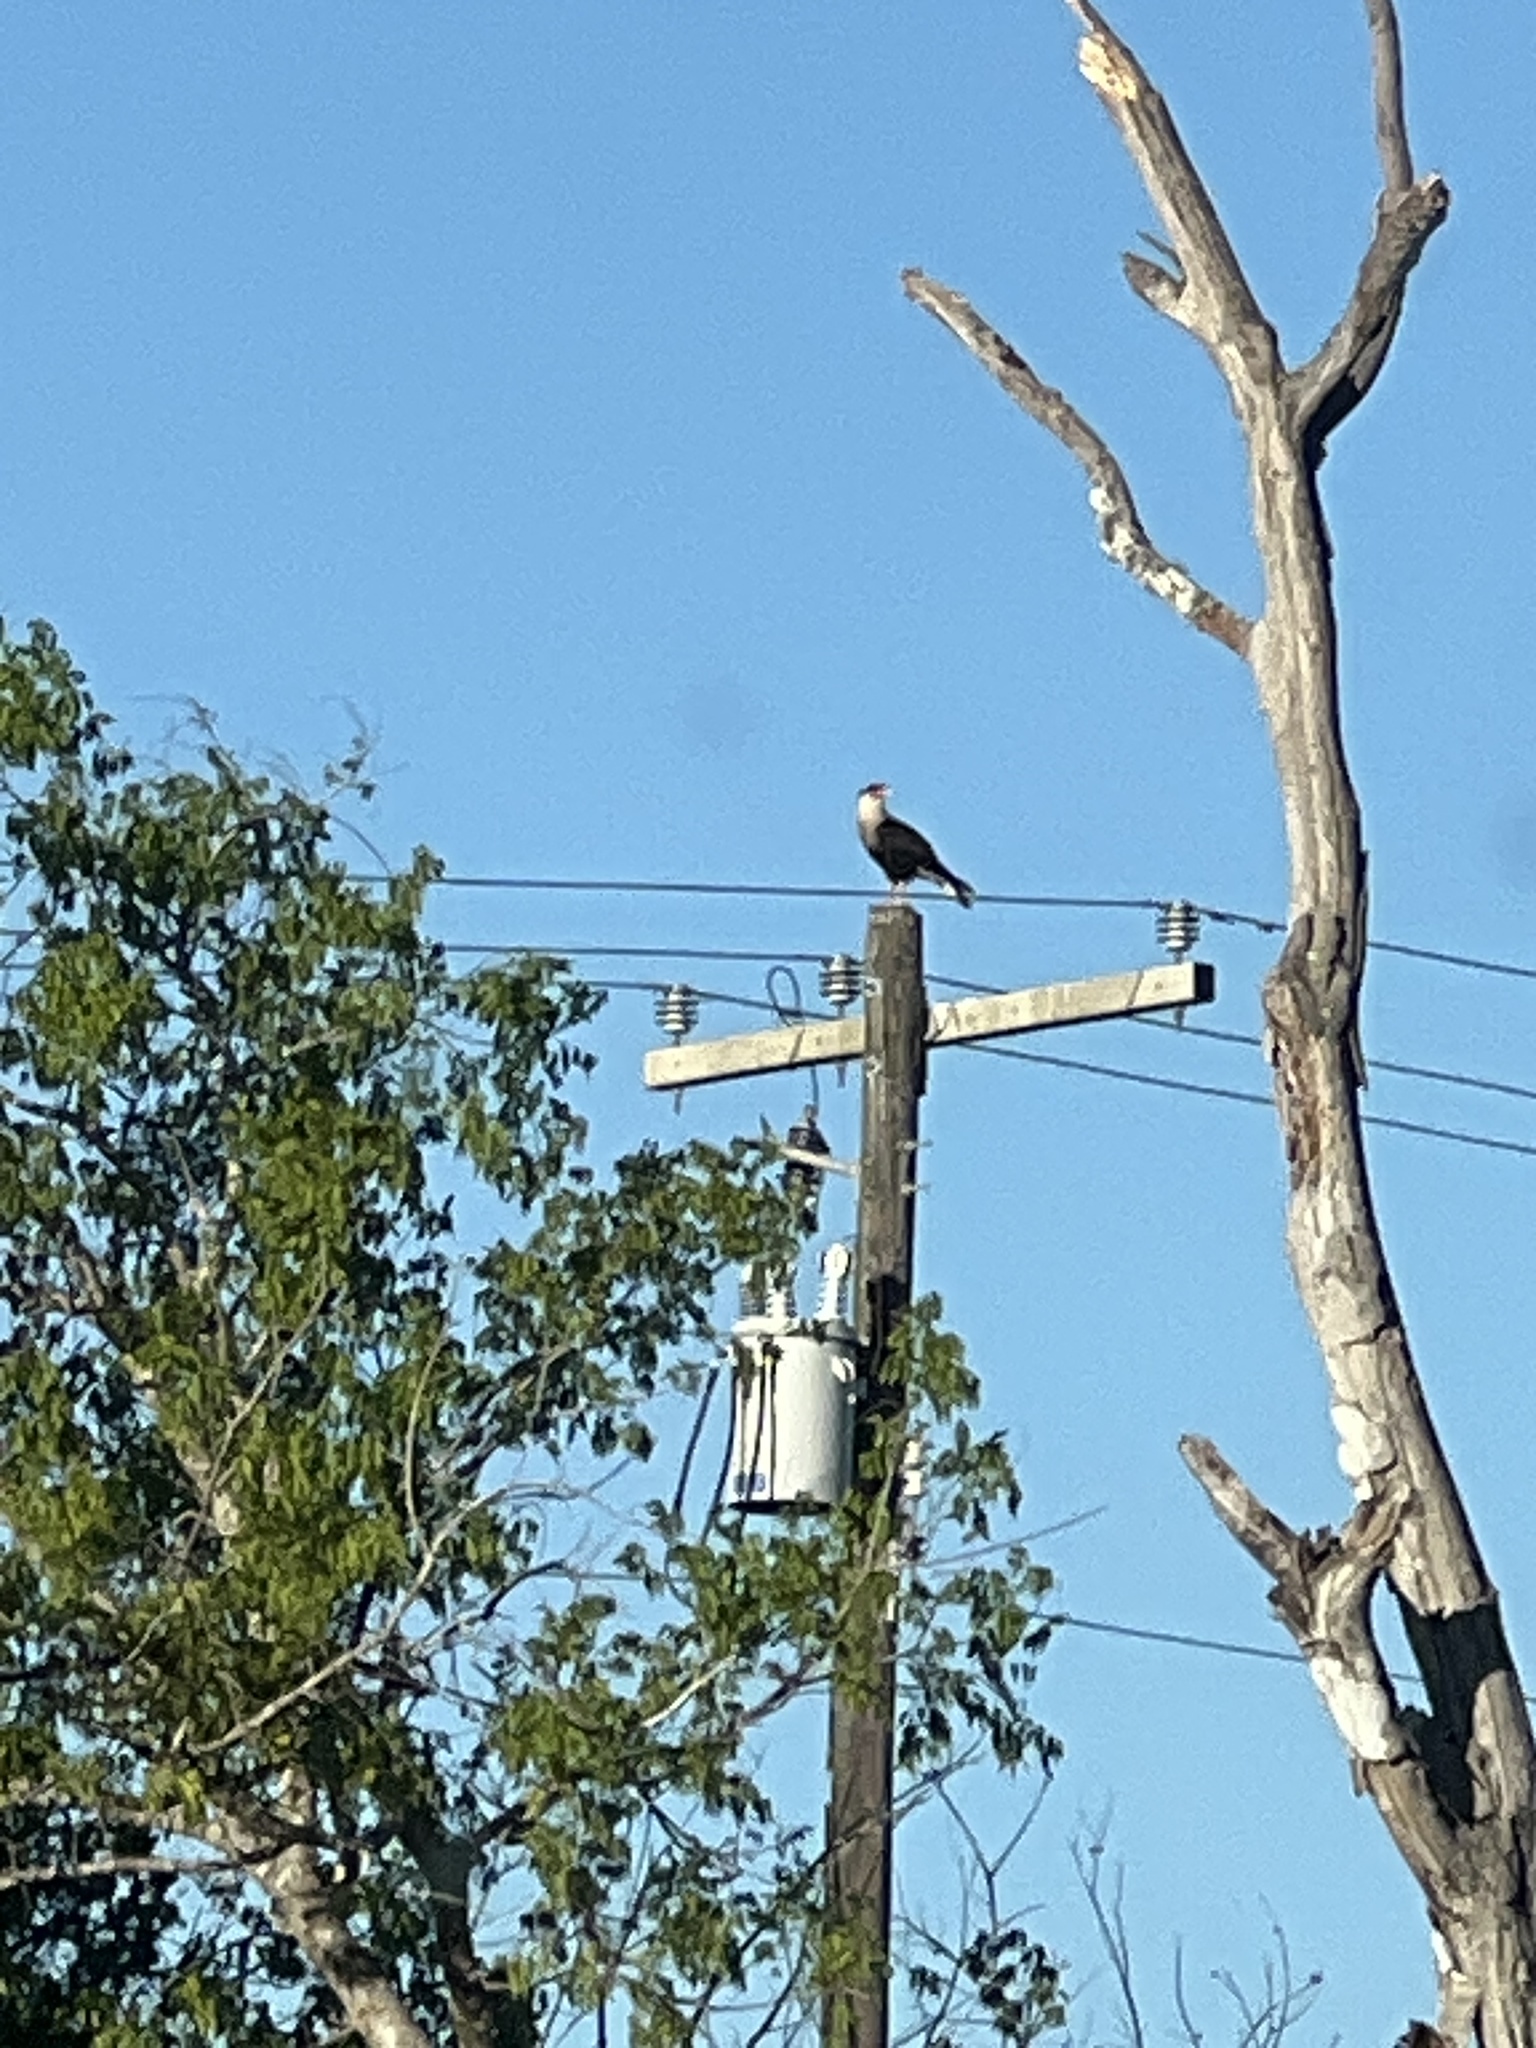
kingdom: Animalia
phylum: Chordata
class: Aves
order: Falconiformes
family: Falconidae
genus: Caracara
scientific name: Caracara plancus
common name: Southern caracara
